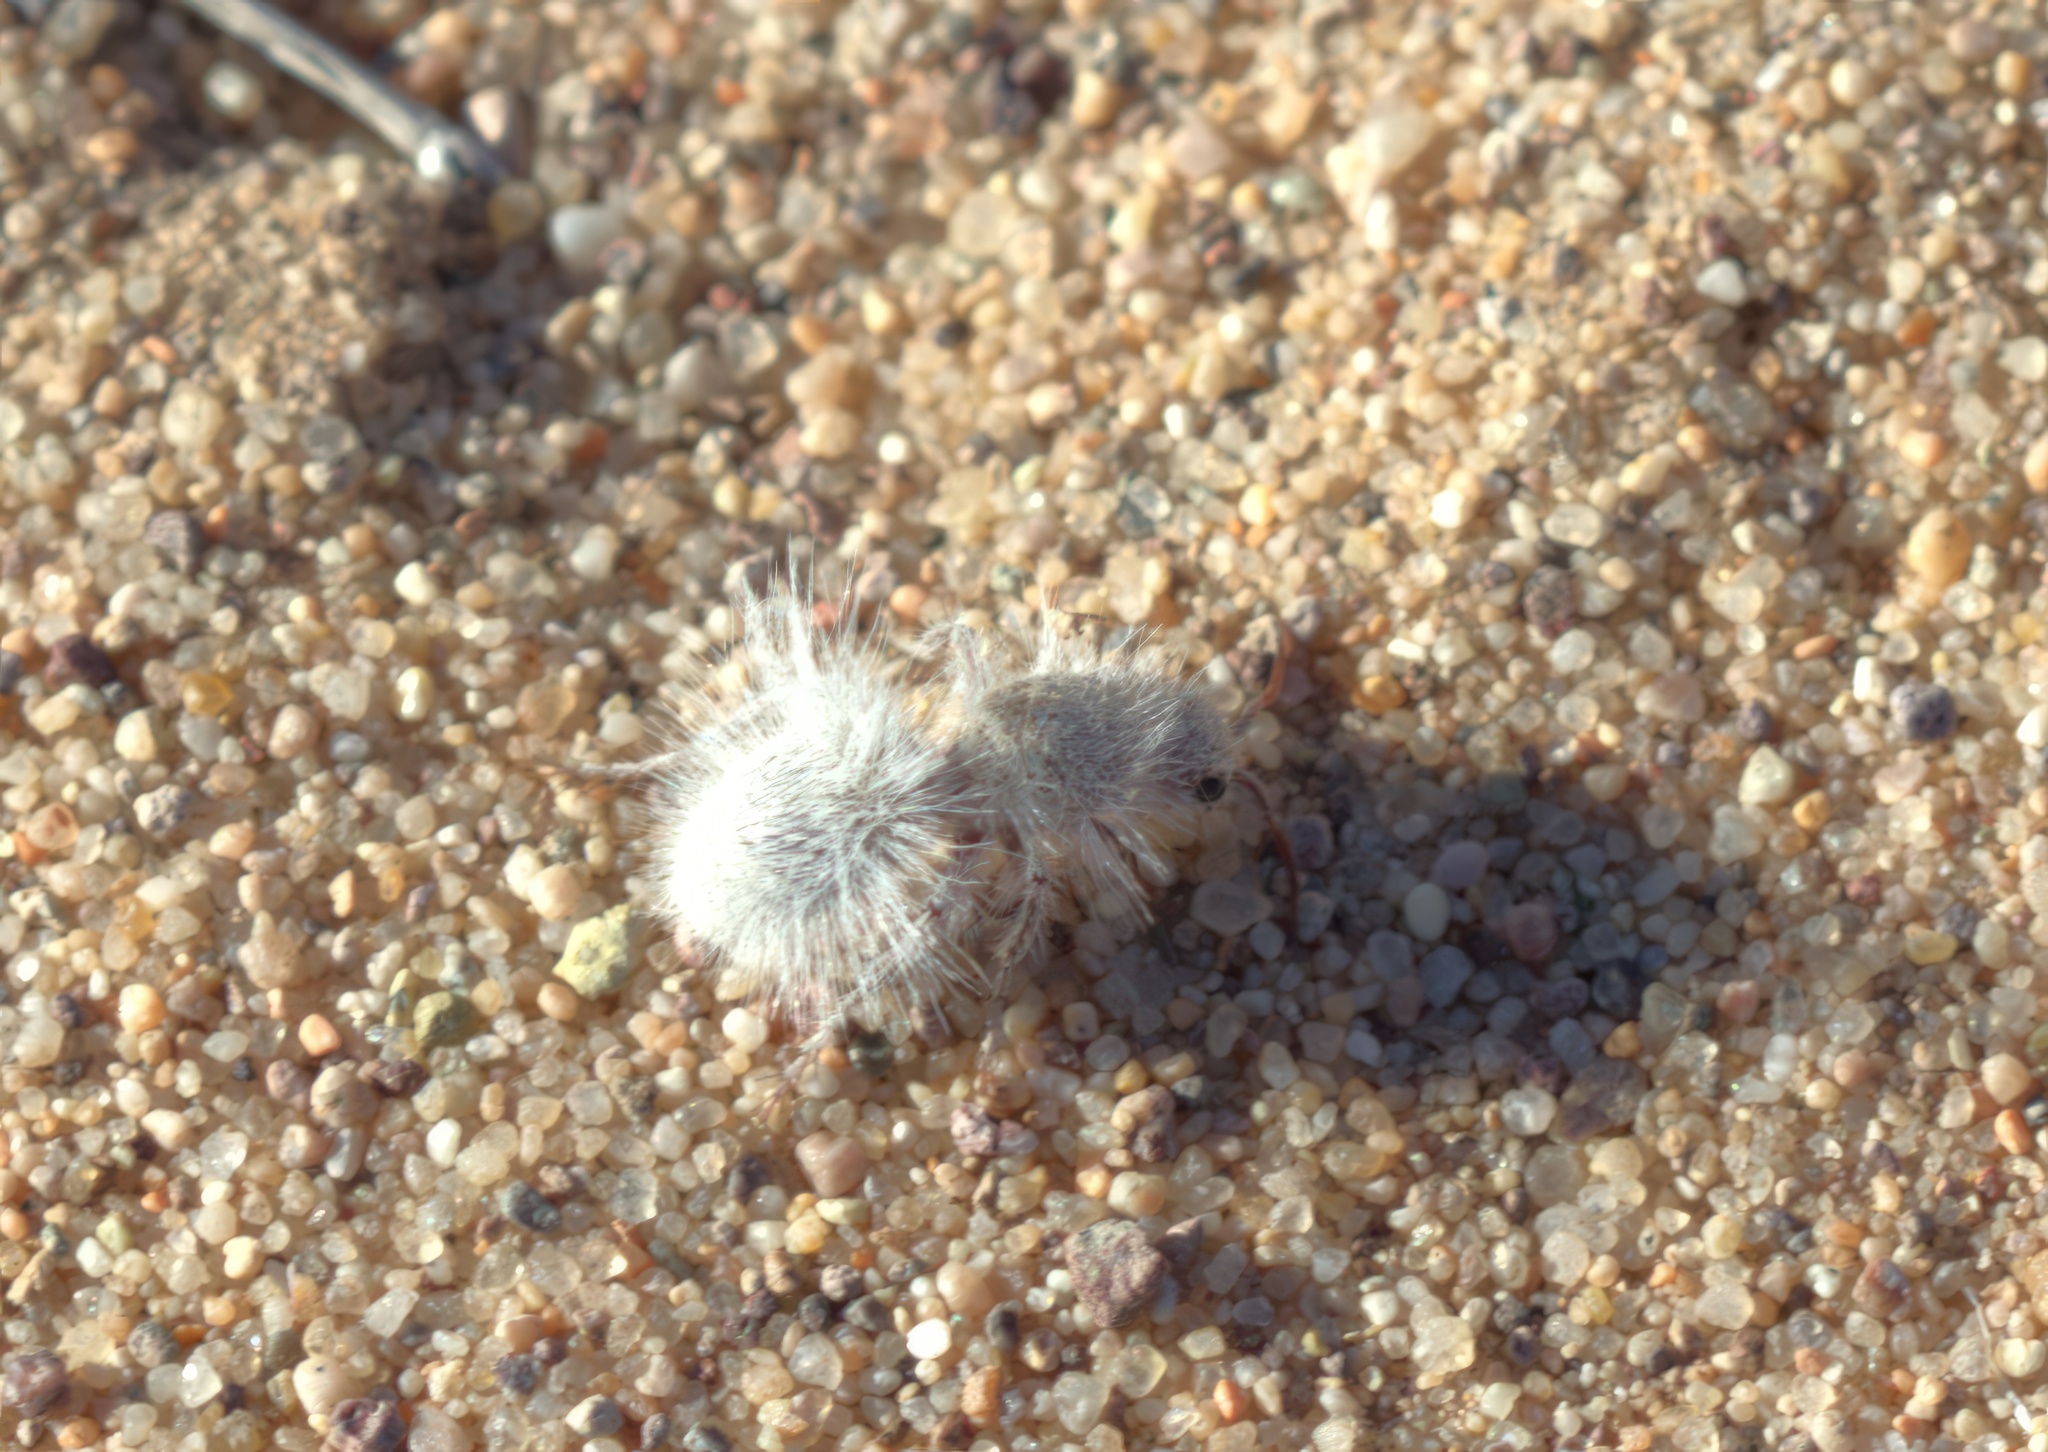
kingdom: Animalia
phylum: Arthropoda
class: Insecta
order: Hymenoptera
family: Mutillidae
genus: Dasymutilla
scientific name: Dasymutilla gloriosa
